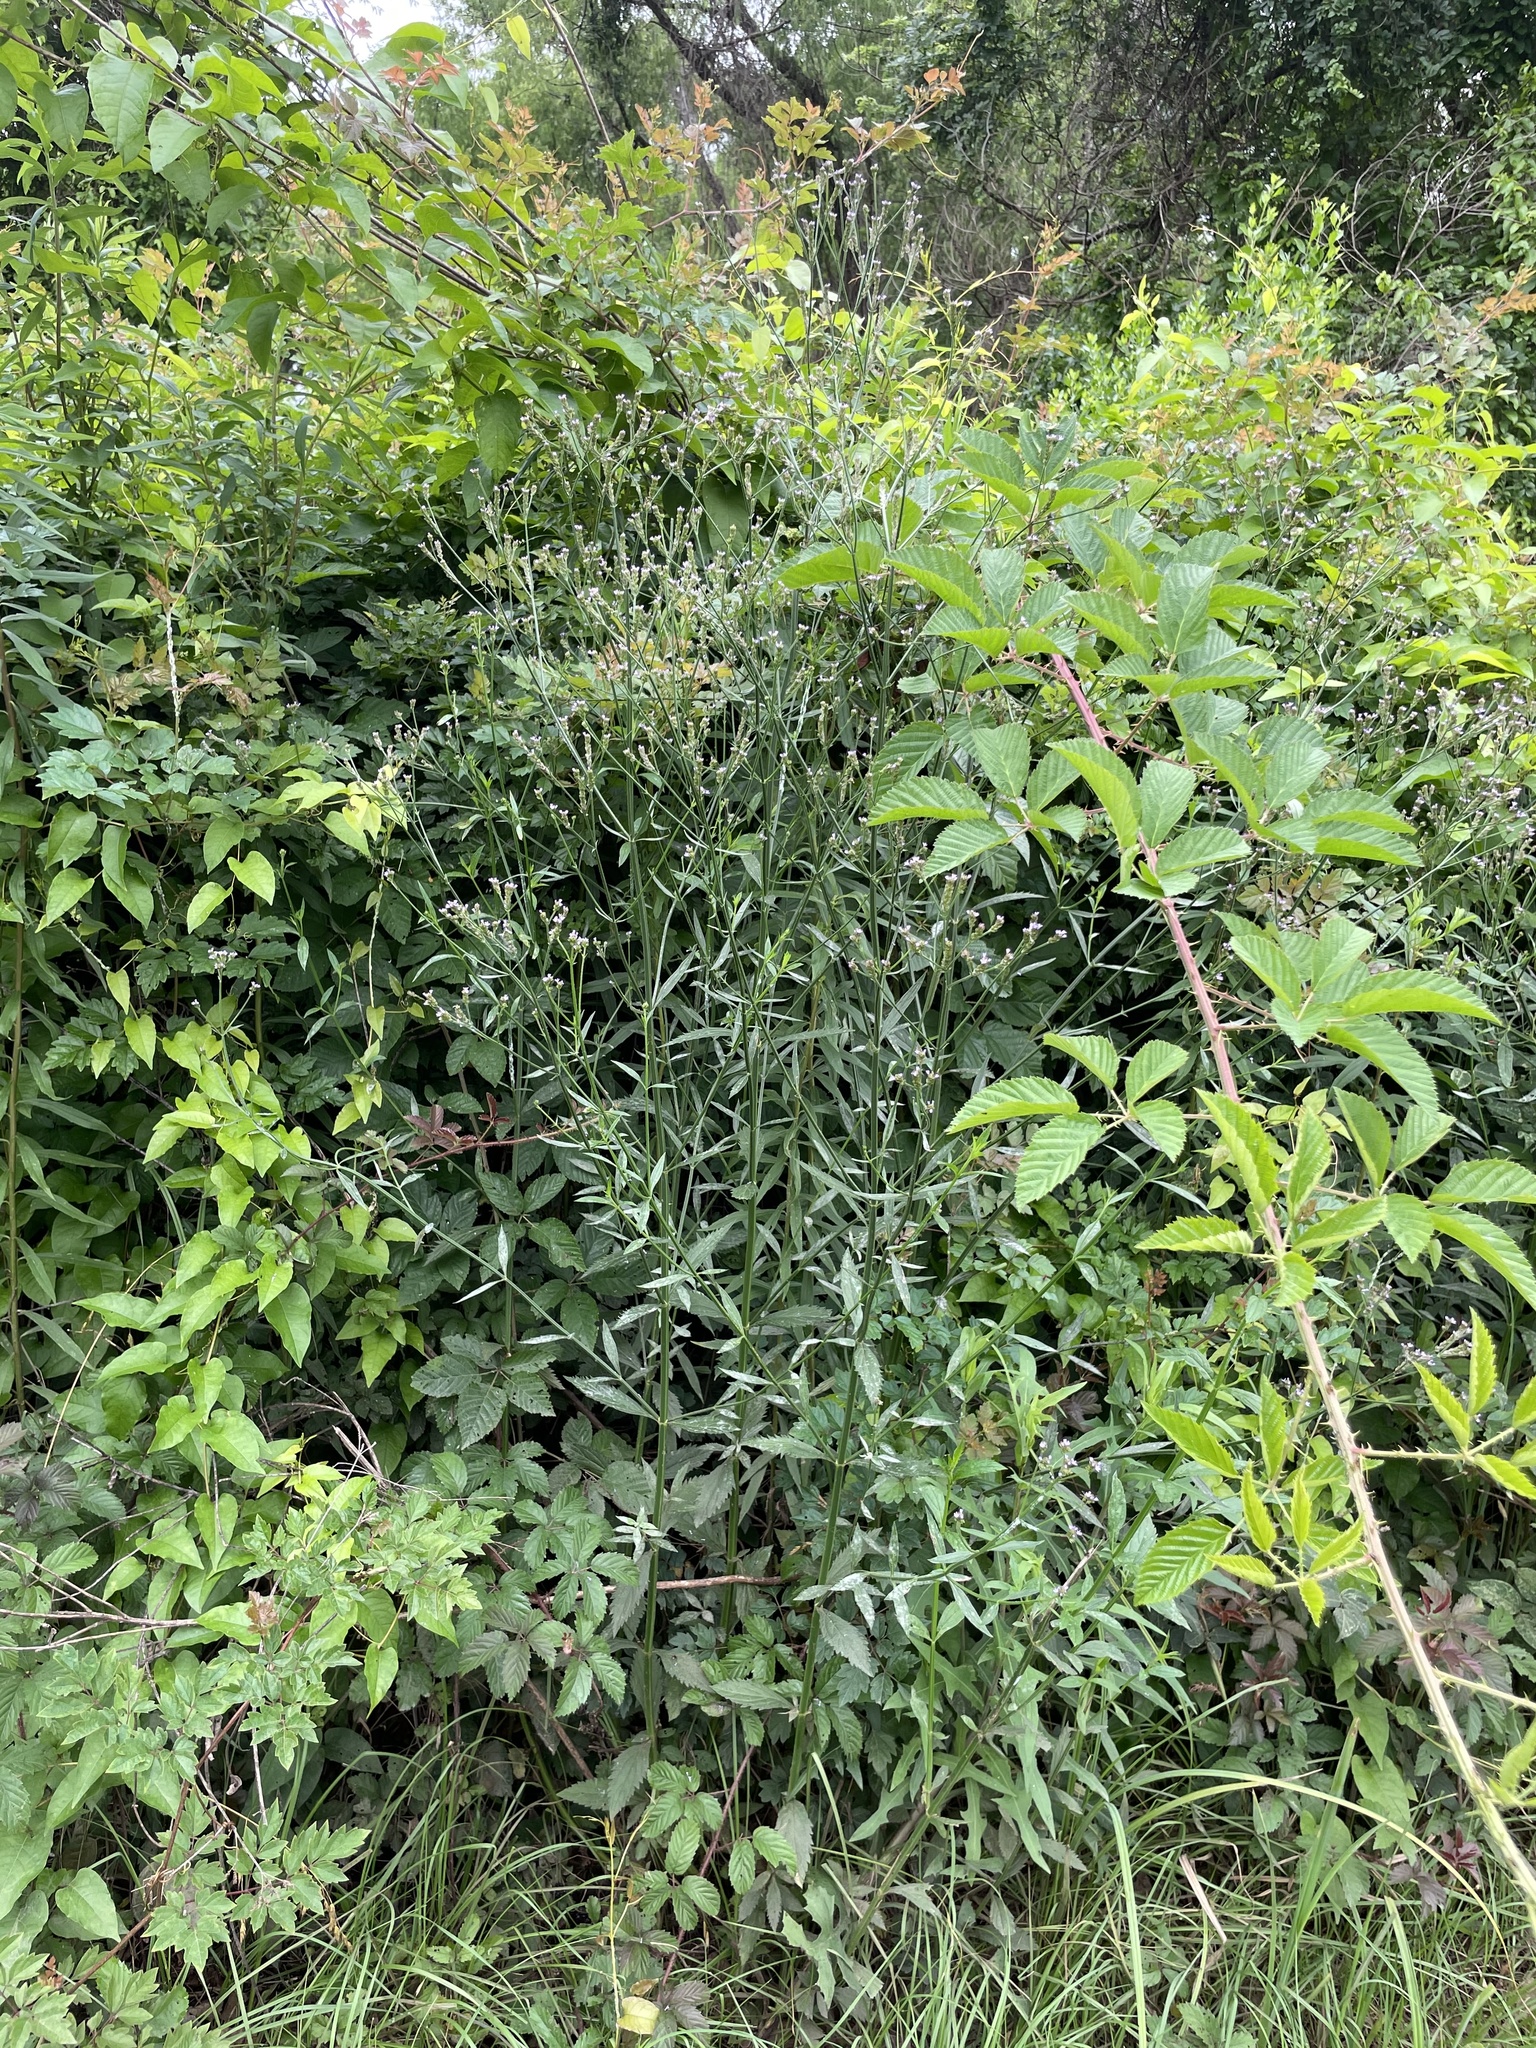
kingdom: Plantae
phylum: Tracheophyta
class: Magnoliopsida
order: Lamiales
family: Verbenaceae
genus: Verbena
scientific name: Verbena brasiliensis
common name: Brazilian vervain
